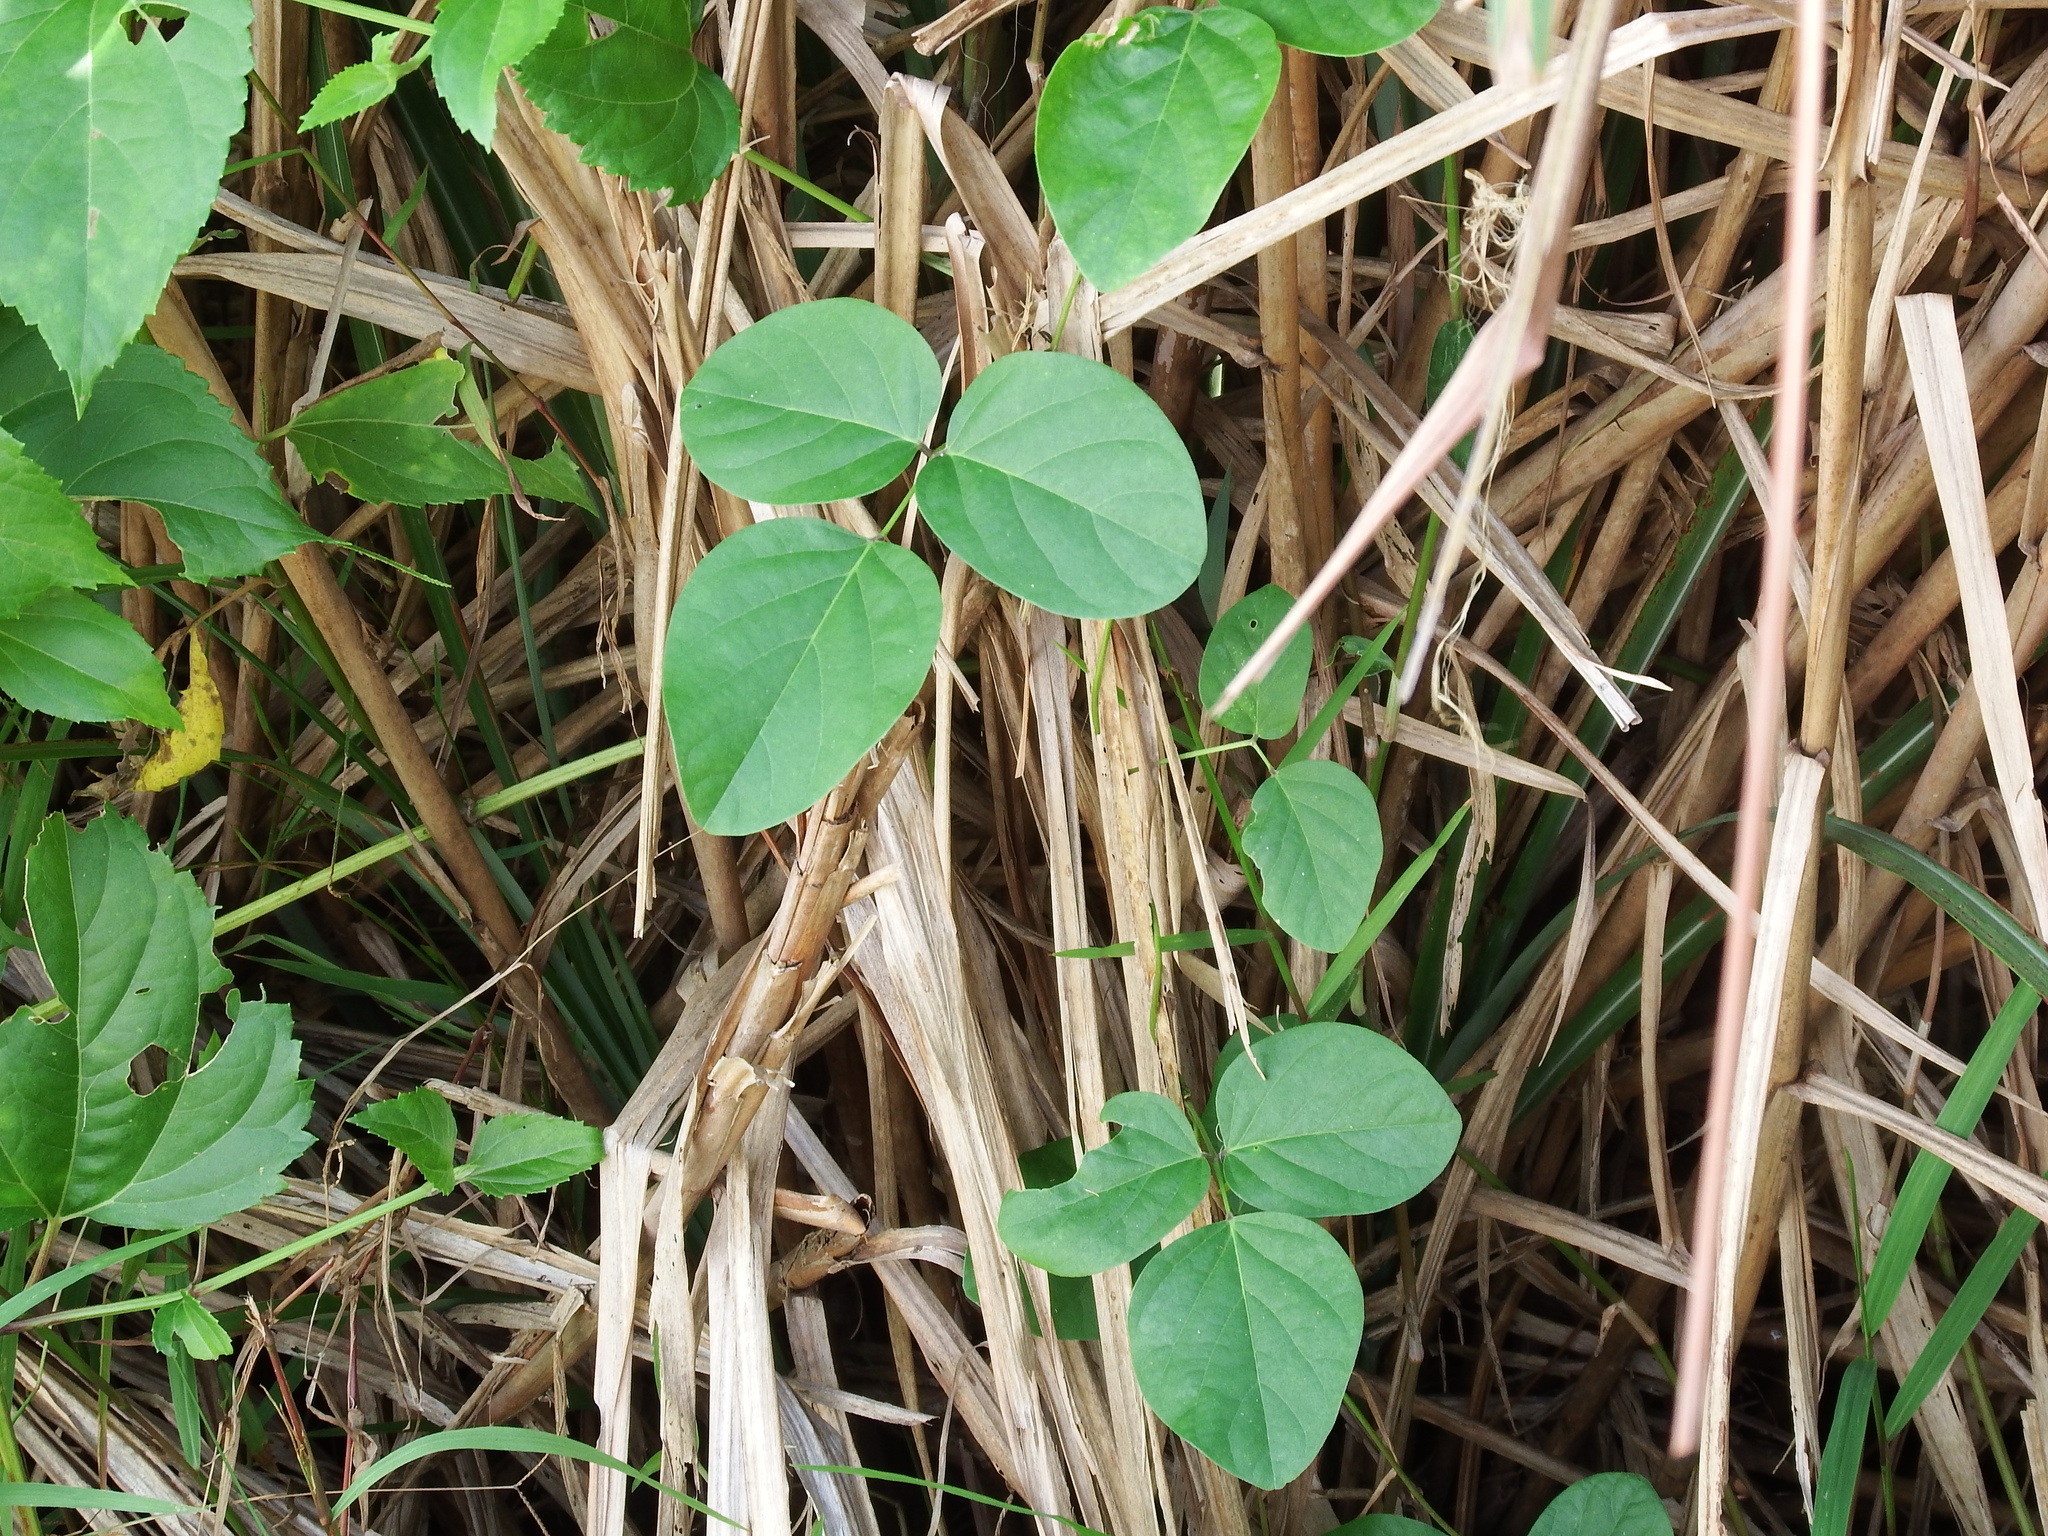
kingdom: Plantae
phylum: Tracheophyta
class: Magnoliopsida
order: Fabales
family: Fabaceae
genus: Canavalia
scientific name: Canavalia lineata
